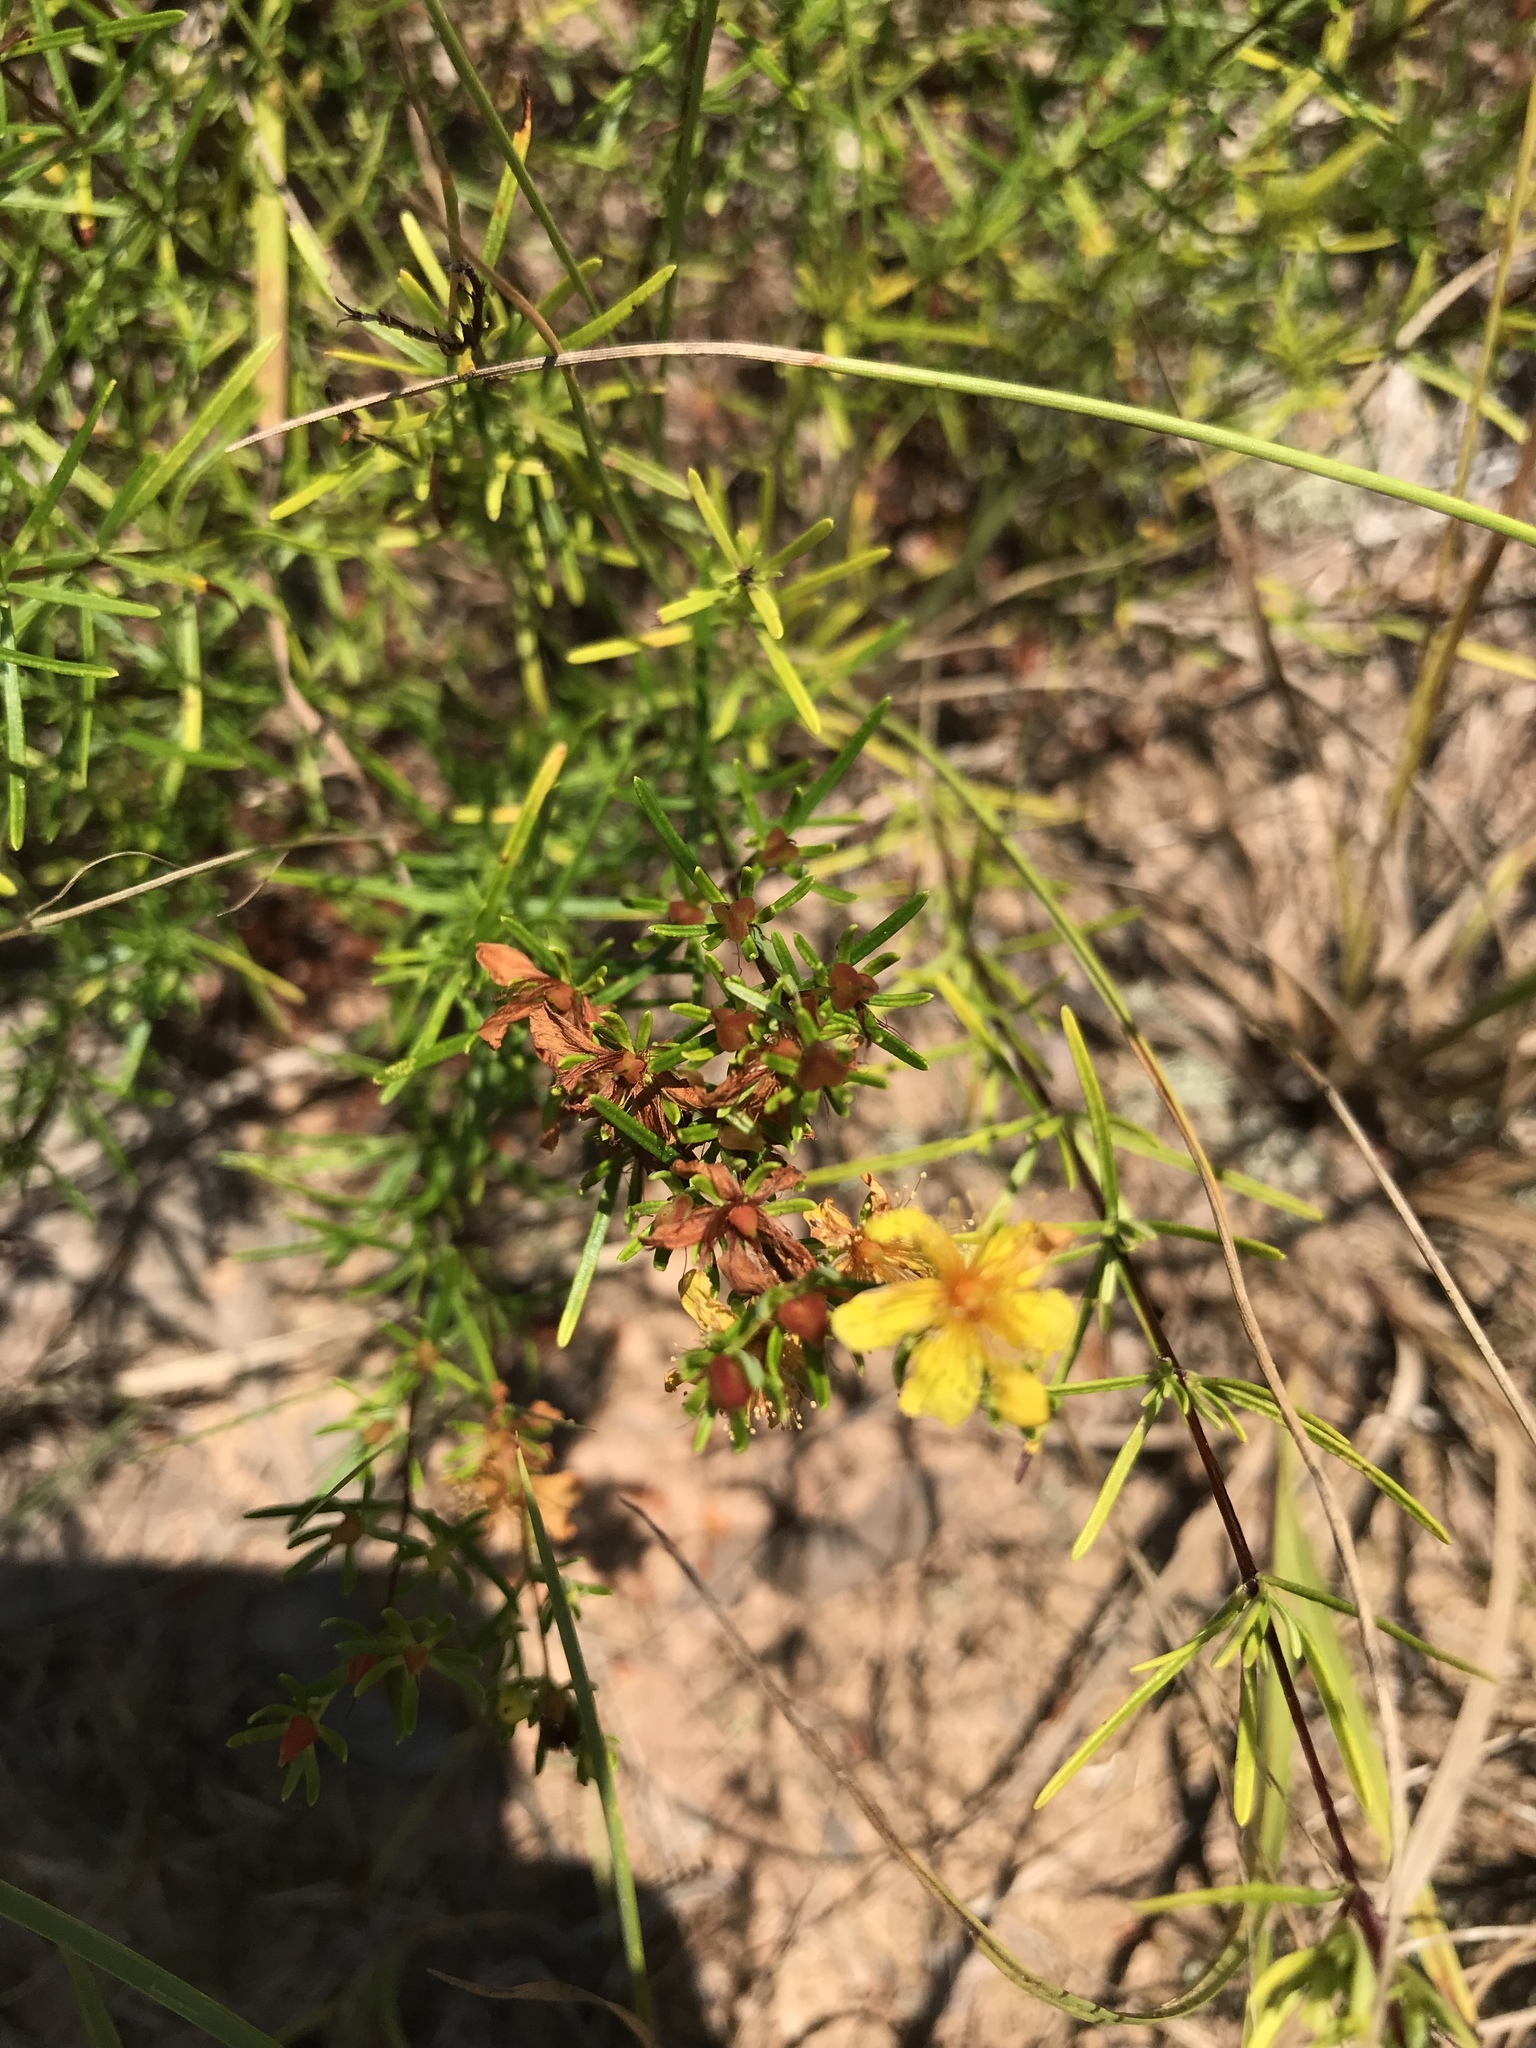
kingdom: Plantae
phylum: Tracheophyta
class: Magnoliopsida
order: Malpighiales
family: Hypericaceae
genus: Hypericum
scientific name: Hypericum lloydii
